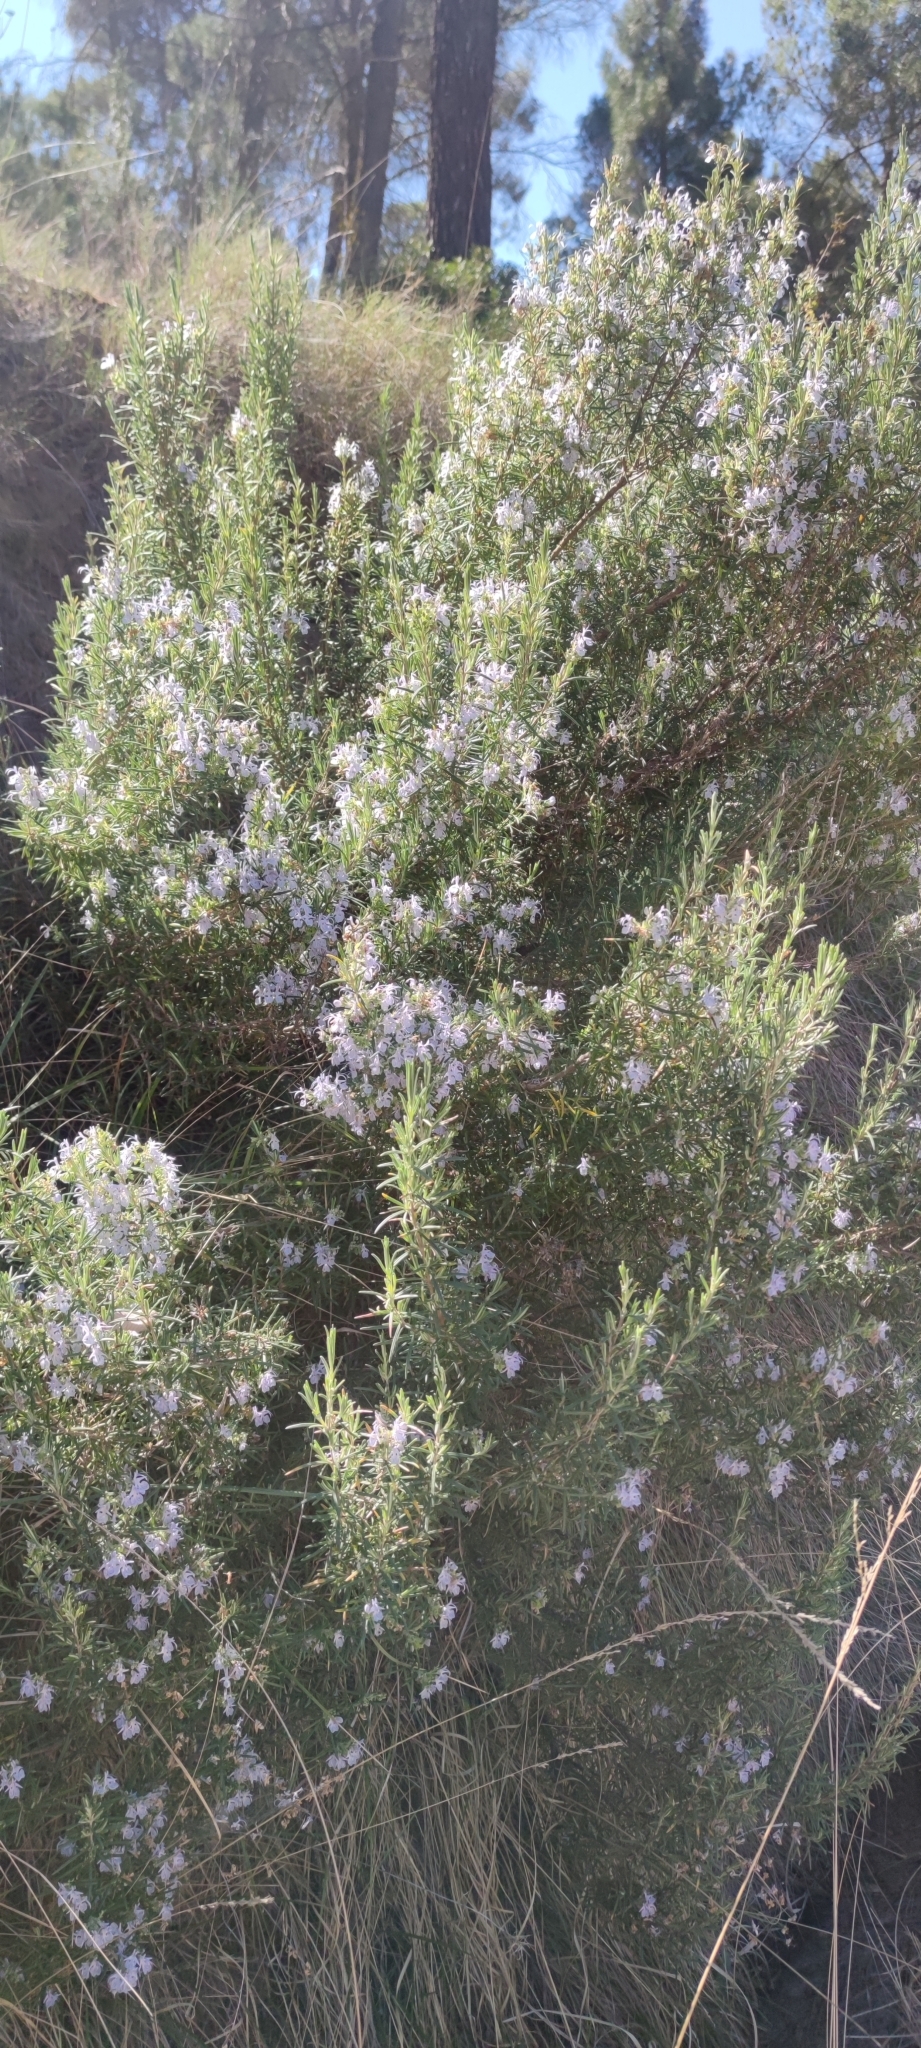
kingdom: Plantae
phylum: Tracheophyta
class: Magnoliopsida
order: Lamiales
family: Lamiaceae
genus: Salvia
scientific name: Salvia rosmarinus
